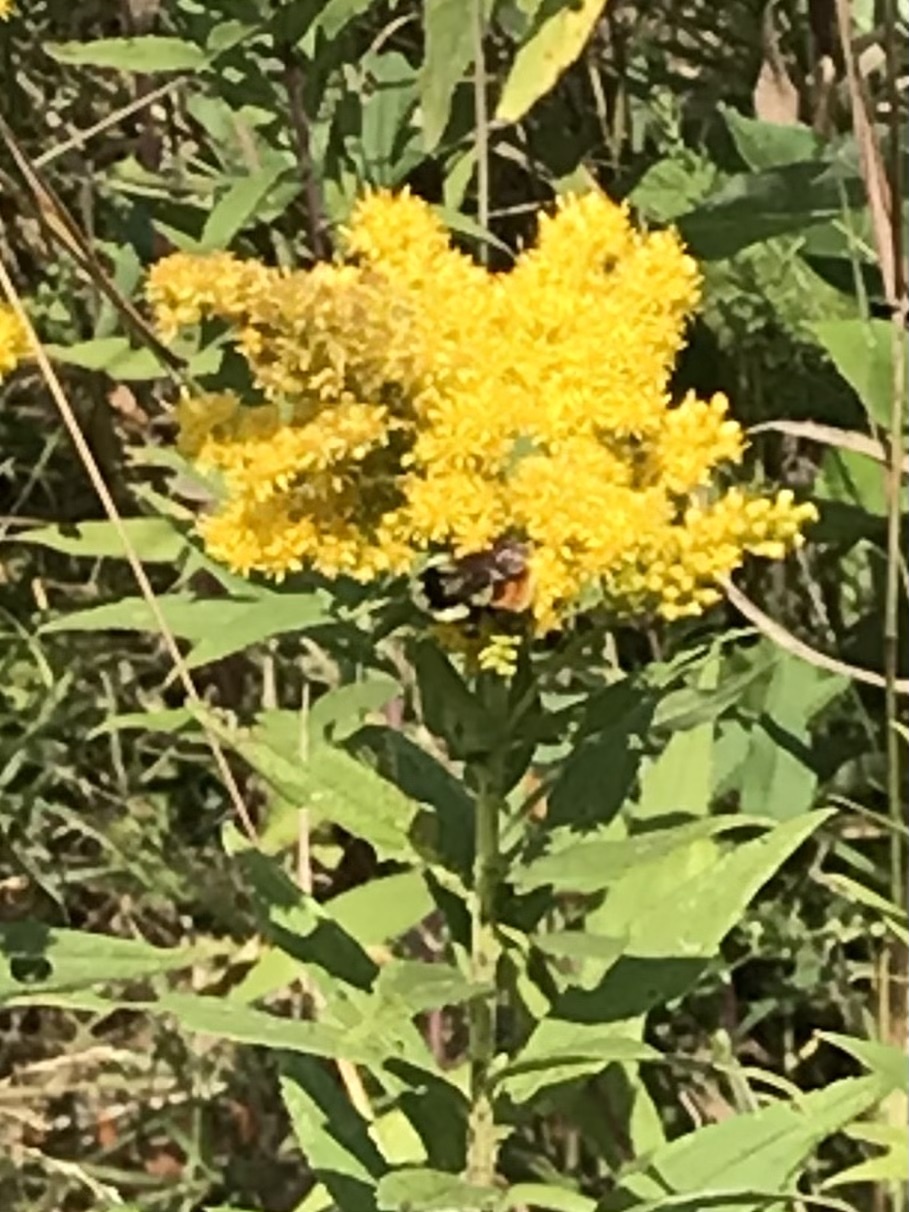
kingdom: Animalia
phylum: Arthropoda
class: Insecta
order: Hymenoptera
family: Apidae
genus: Bombus
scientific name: Bombus ternarius
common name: Tri-colored bumble bee
